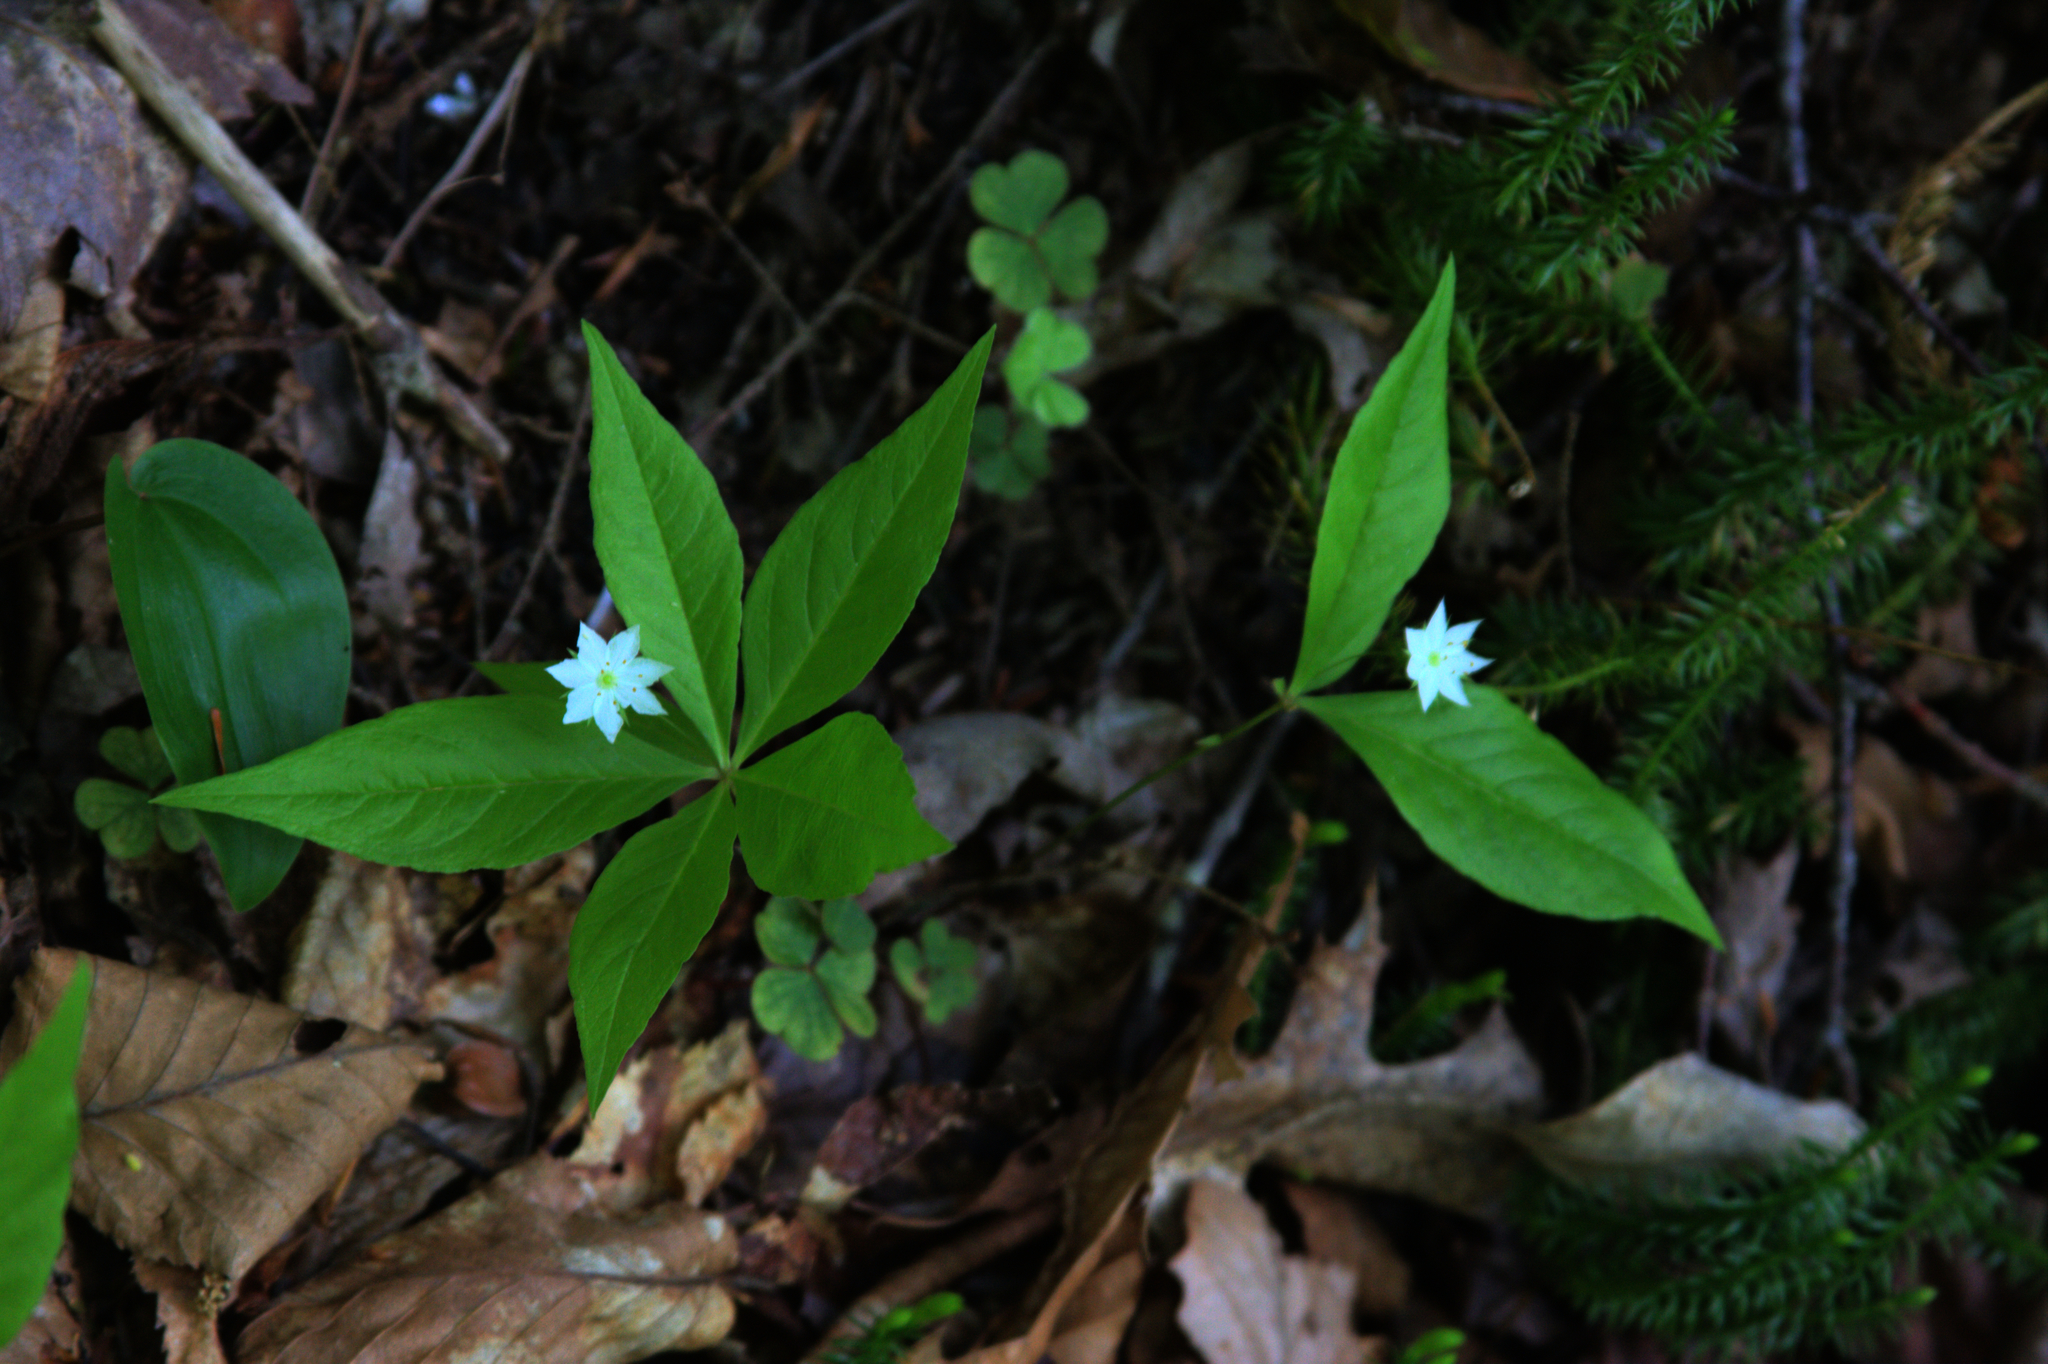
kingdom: Plantae
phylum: Tracheophyta
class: Magnoliopsida
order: Ericales
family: Primulaceae
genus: Lysimachia
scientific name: Lysimachia borealis
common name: American starflower
